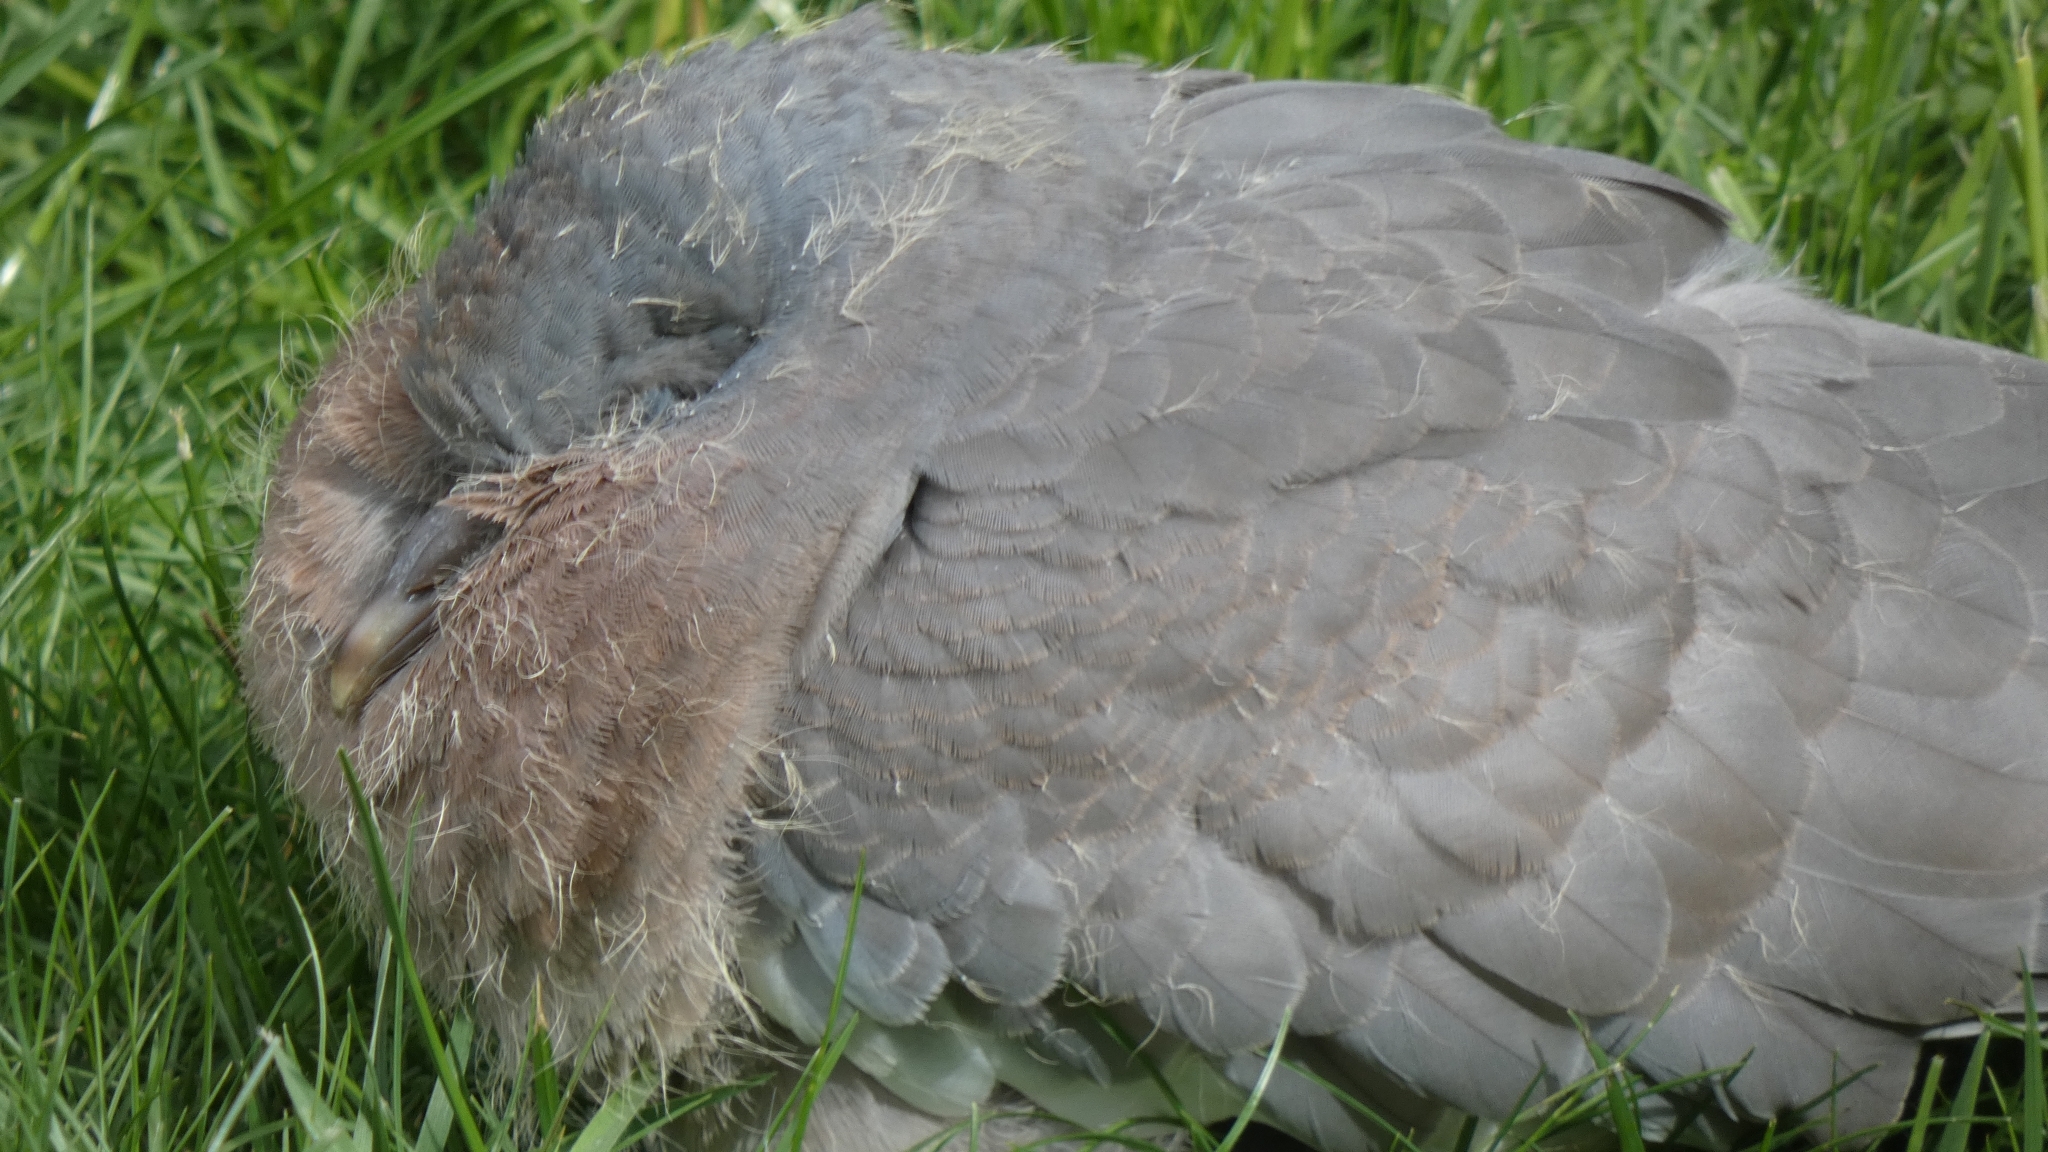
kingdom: Animalia
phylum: Chordata
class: Aves
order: Columbiformes
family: Columbidae
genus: Columba
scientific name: Columba palumbus
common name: Common wood pigeon
